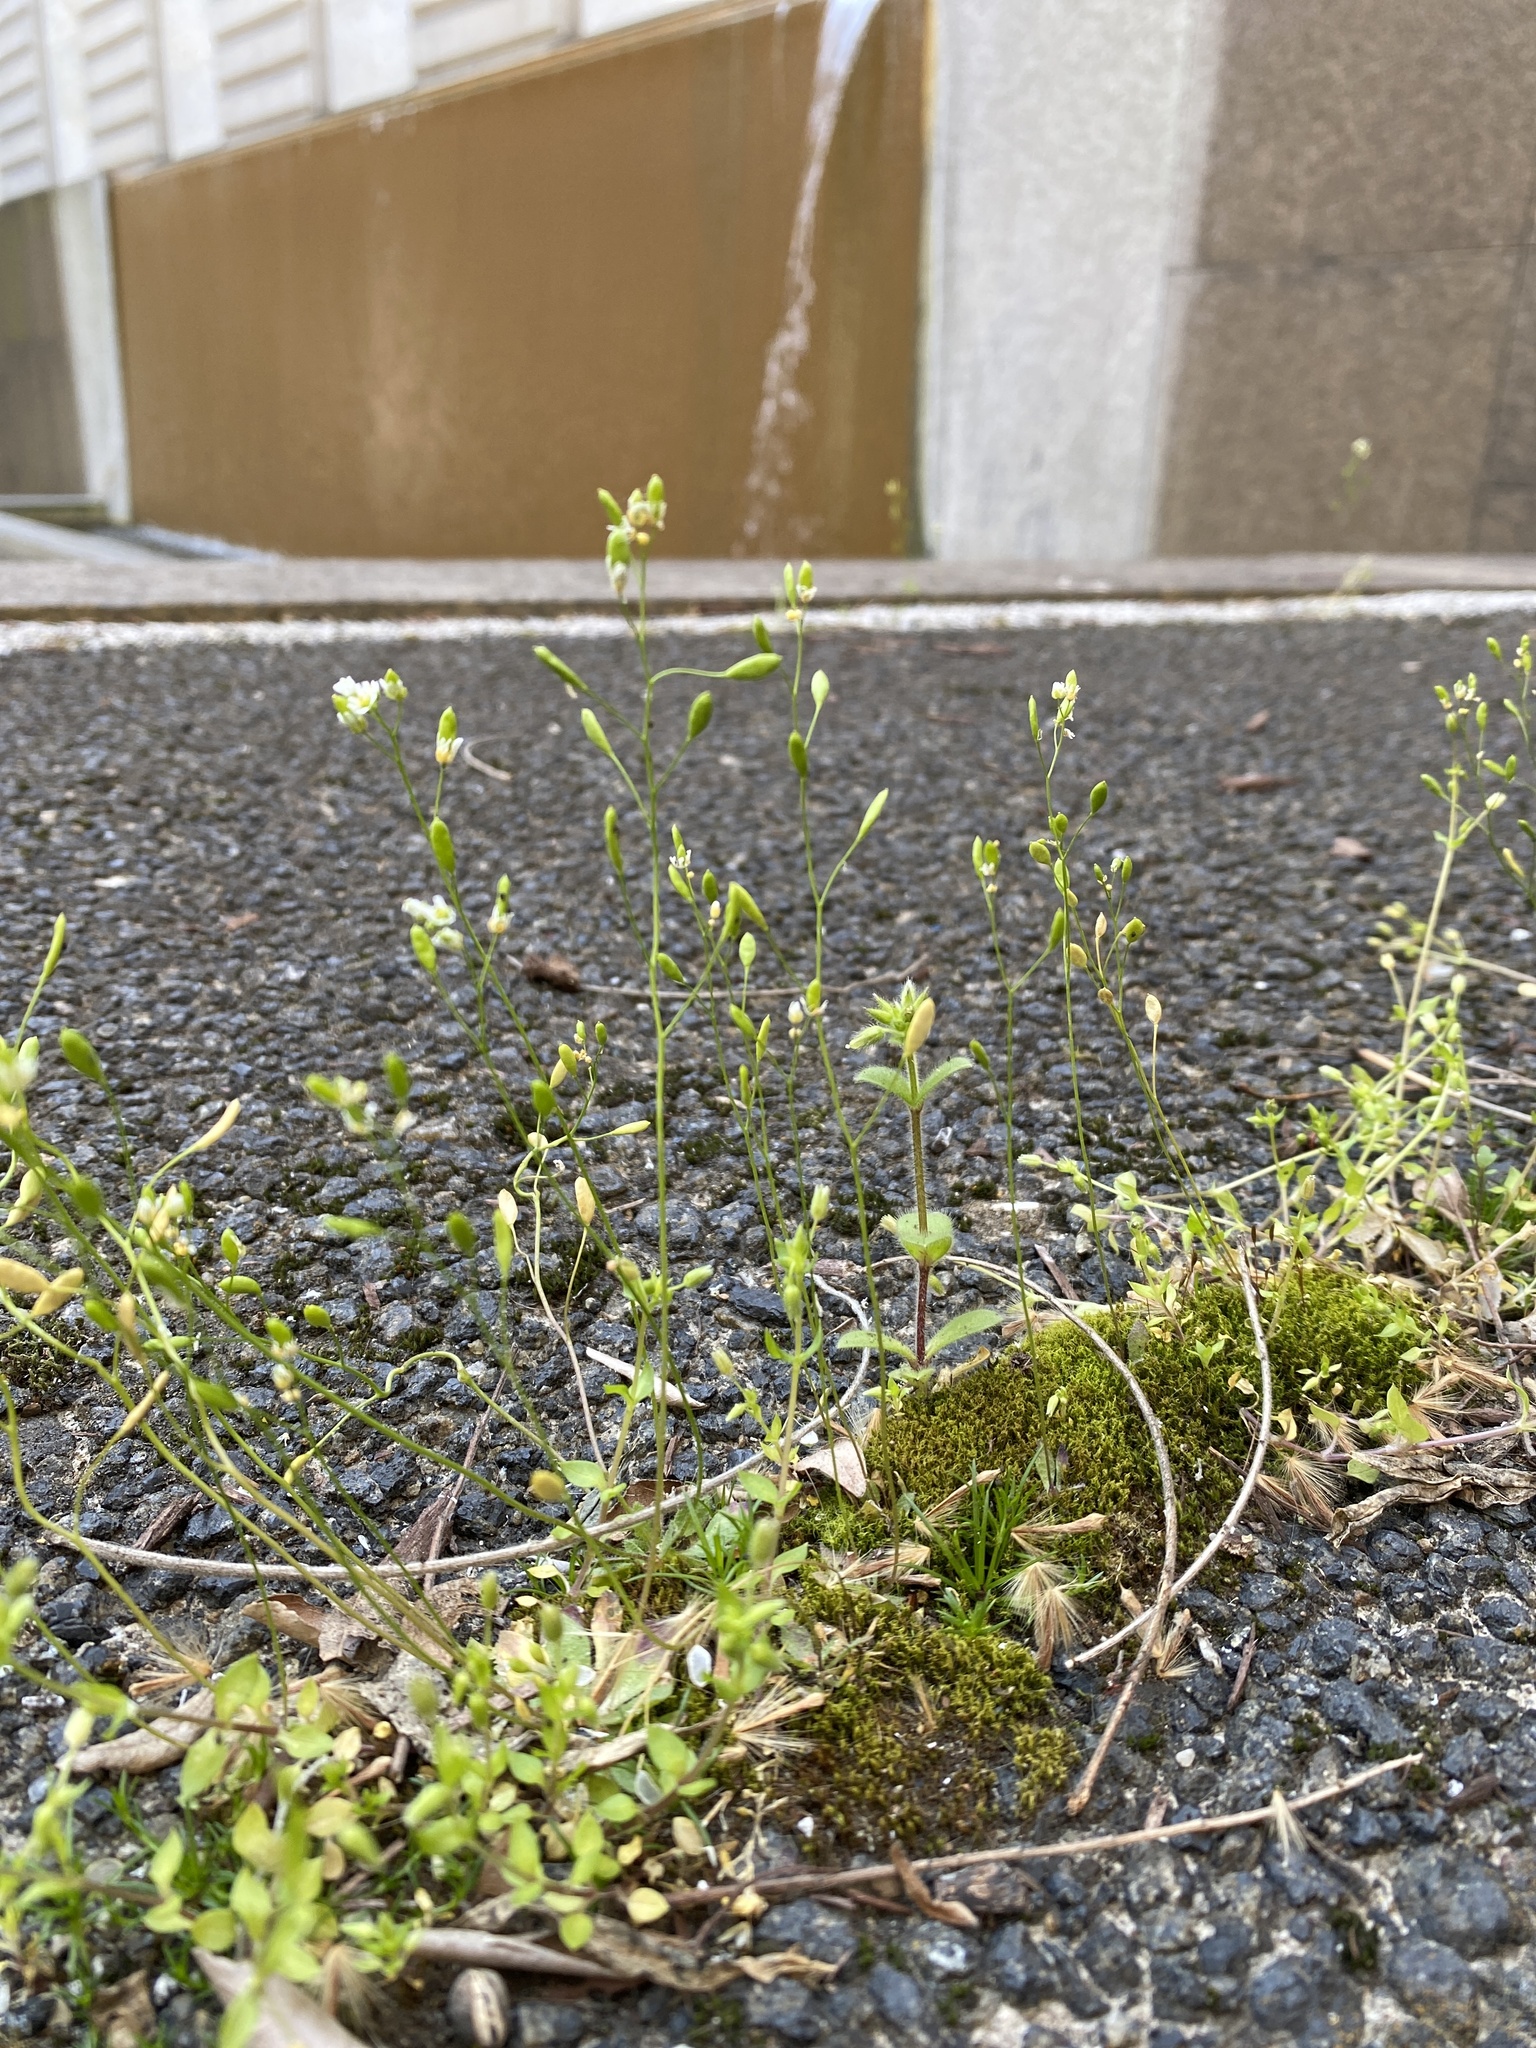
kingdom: Plantae
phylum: Tracheophyta
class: Magnoliopsida
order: Brassicales
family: Brassicaceae
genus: Draba
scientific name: Draba verna
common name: Spring draba
